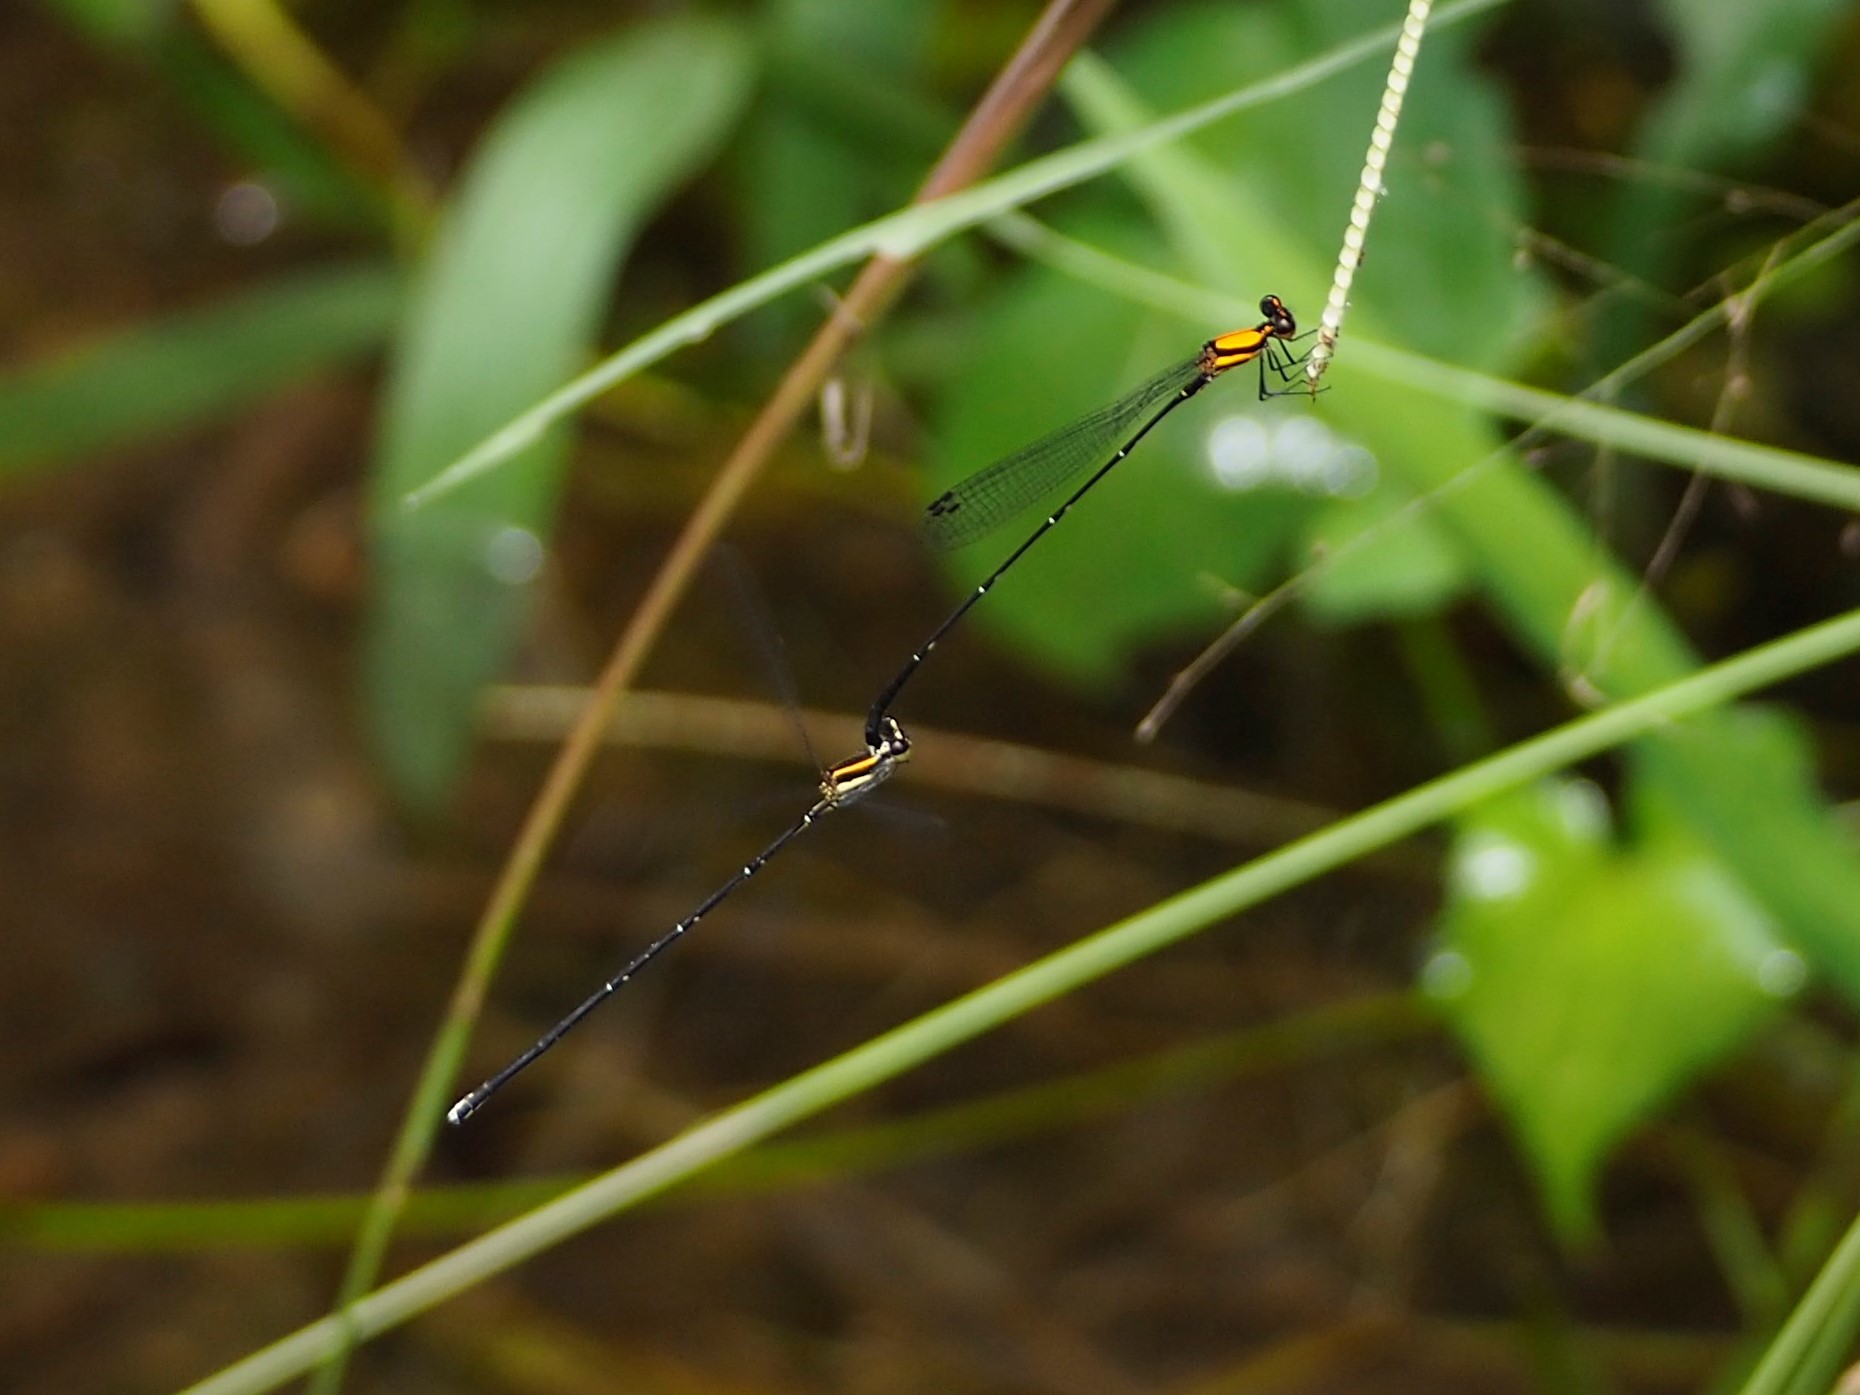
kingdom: Animalia
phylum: Arthropoda
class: Insecta
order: Odonata
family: Platycnemididae
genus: Prodasineura
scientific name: Prodasineura croconota
